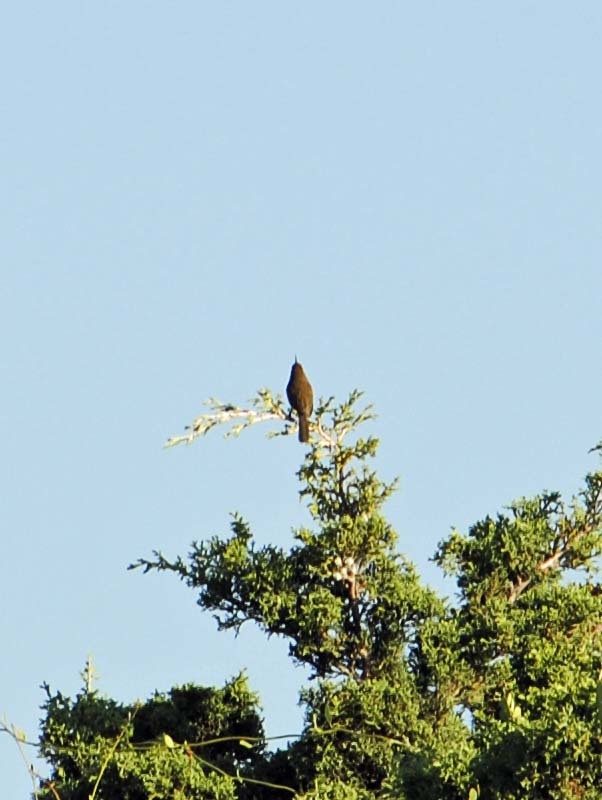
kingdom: Animalia
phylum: Chordata
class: Aves
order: Passeriformes
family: Troglodytidae
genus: Thryomanes
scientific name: Thryomanes bewickii
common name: Bewick's wren
